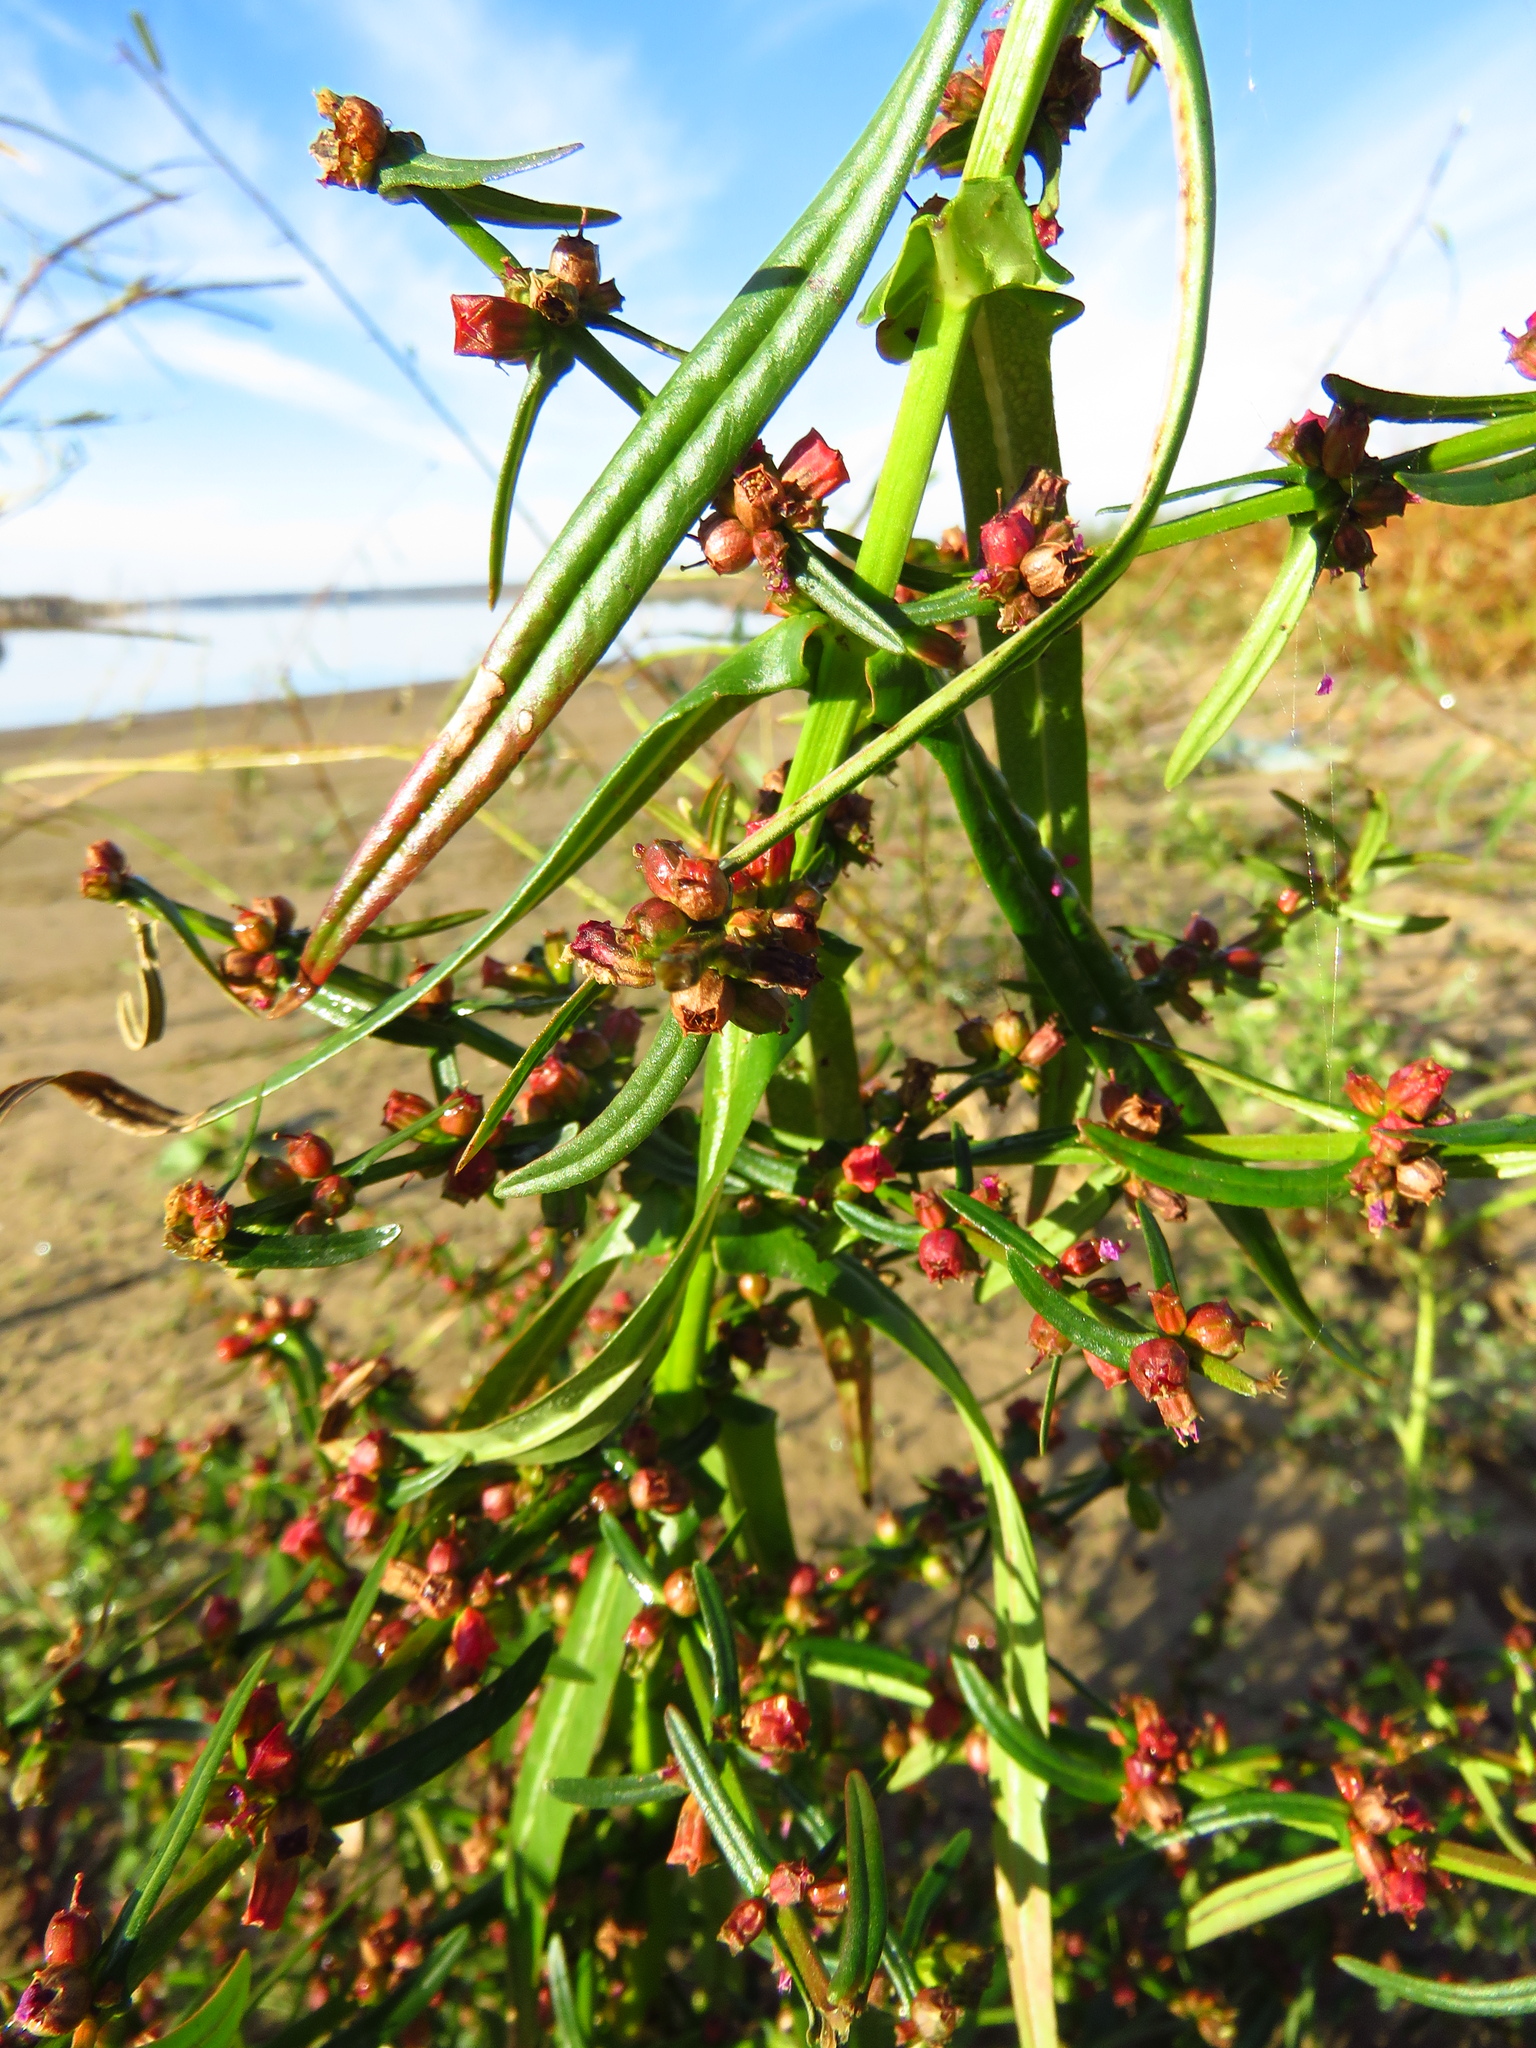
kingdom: Plantae
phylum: Tracheophyta
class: Magnoliopsida
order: Myrtales
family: Lythraceae
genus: Ammannia
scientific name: Ammannia coccinea
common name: Valley redstem
